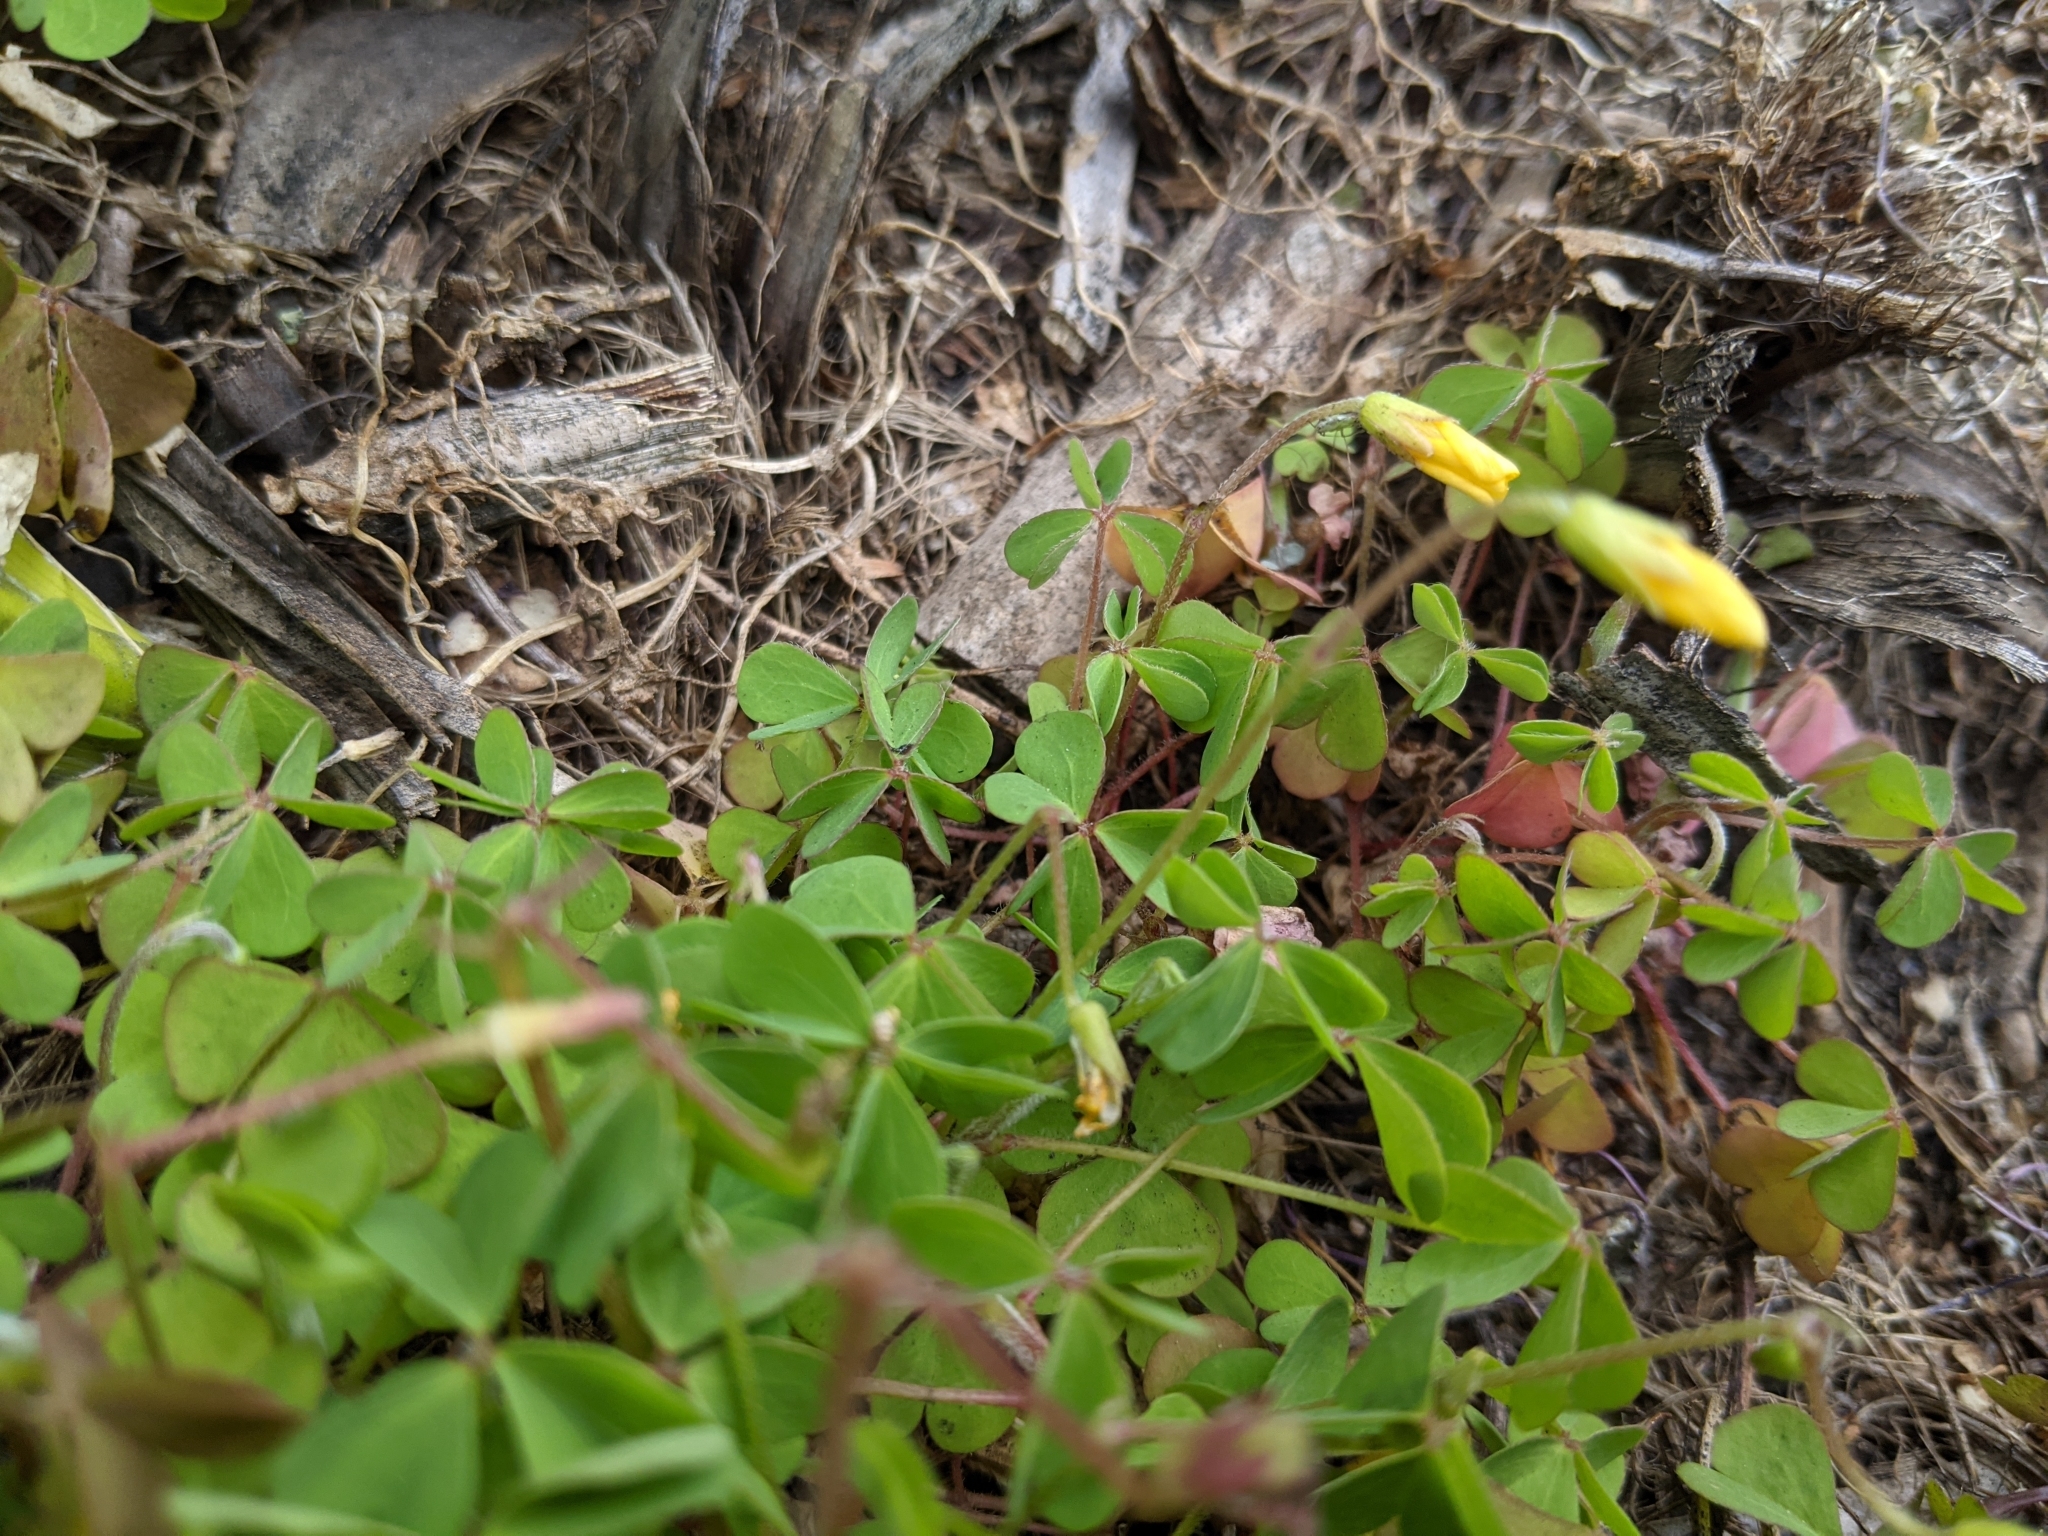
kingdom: Plantae
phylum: Tracheophyta
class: Magnoliopsida
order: Oxalidales
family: Oxalidaceae
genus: Oxalis
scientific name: Oxalis corniculata
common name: Procumbent yellow-sorrel
